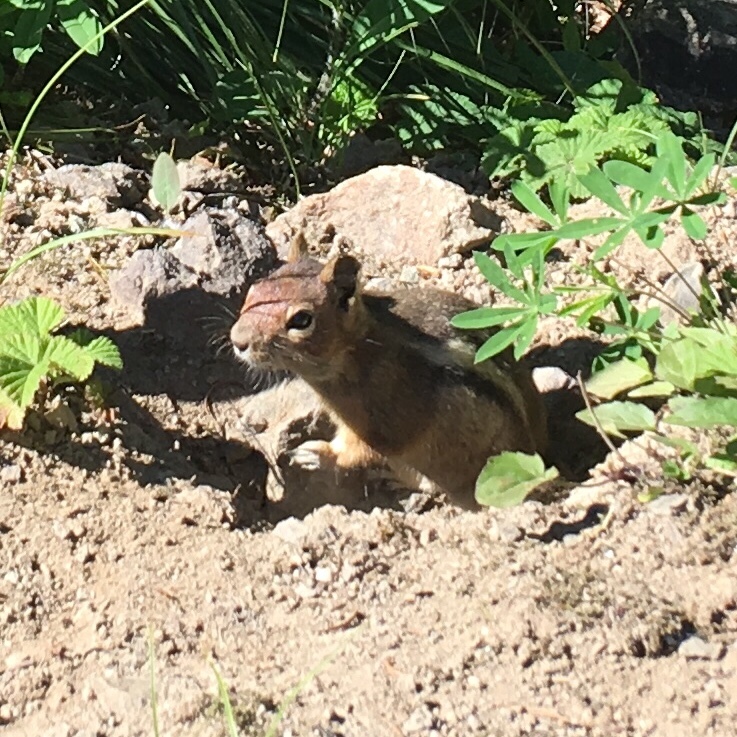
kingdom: Animalia
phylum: Chordata
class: Mammalia
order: Rodentia
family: Sciuridae
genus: Callospermophilus
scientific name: Callospermophilus saturatus
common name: Cascade golden-mantled ground squirrel
